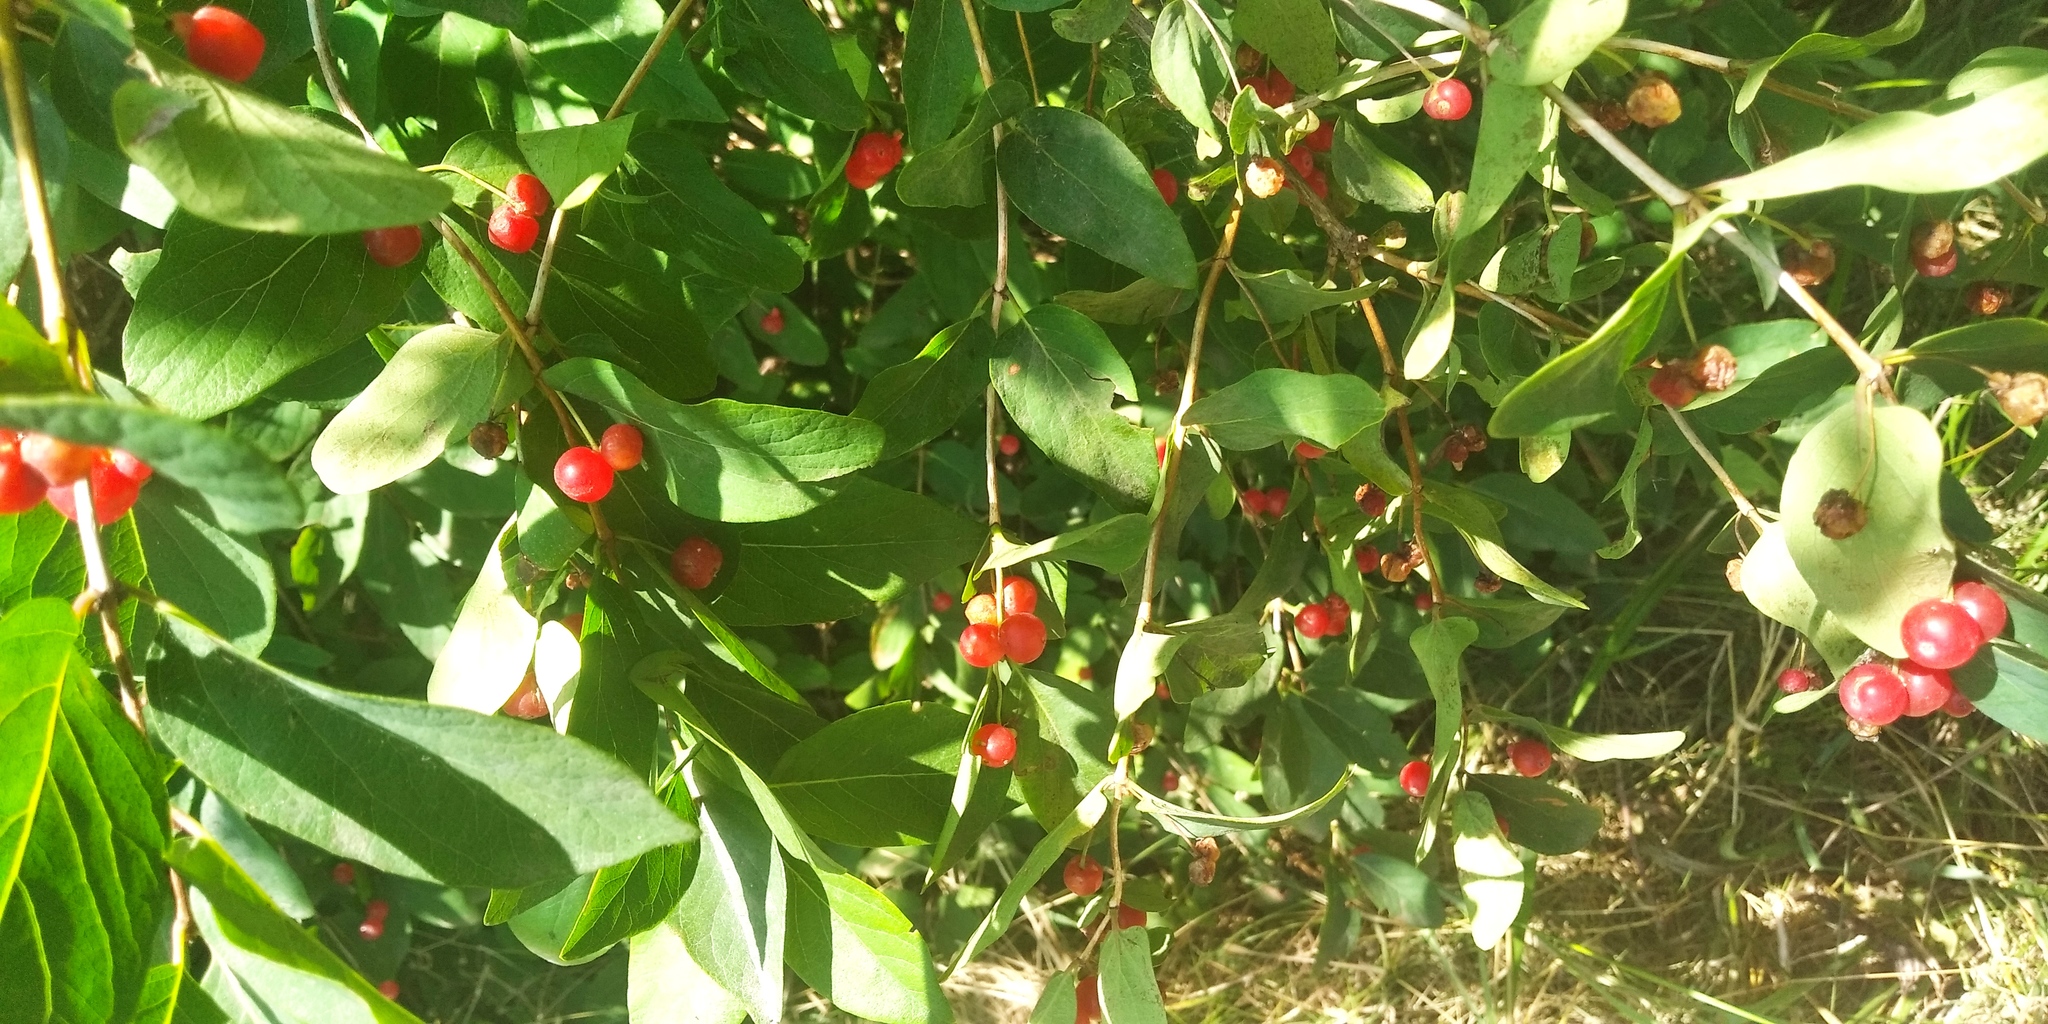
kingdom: Plantae
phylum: Tracheophyta
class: Magnoliopsida
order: Dipsacales
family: Caprifoliaceae
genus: Lonicera
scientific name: Lonicera tatarica
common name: Tatarian honeysuckle
